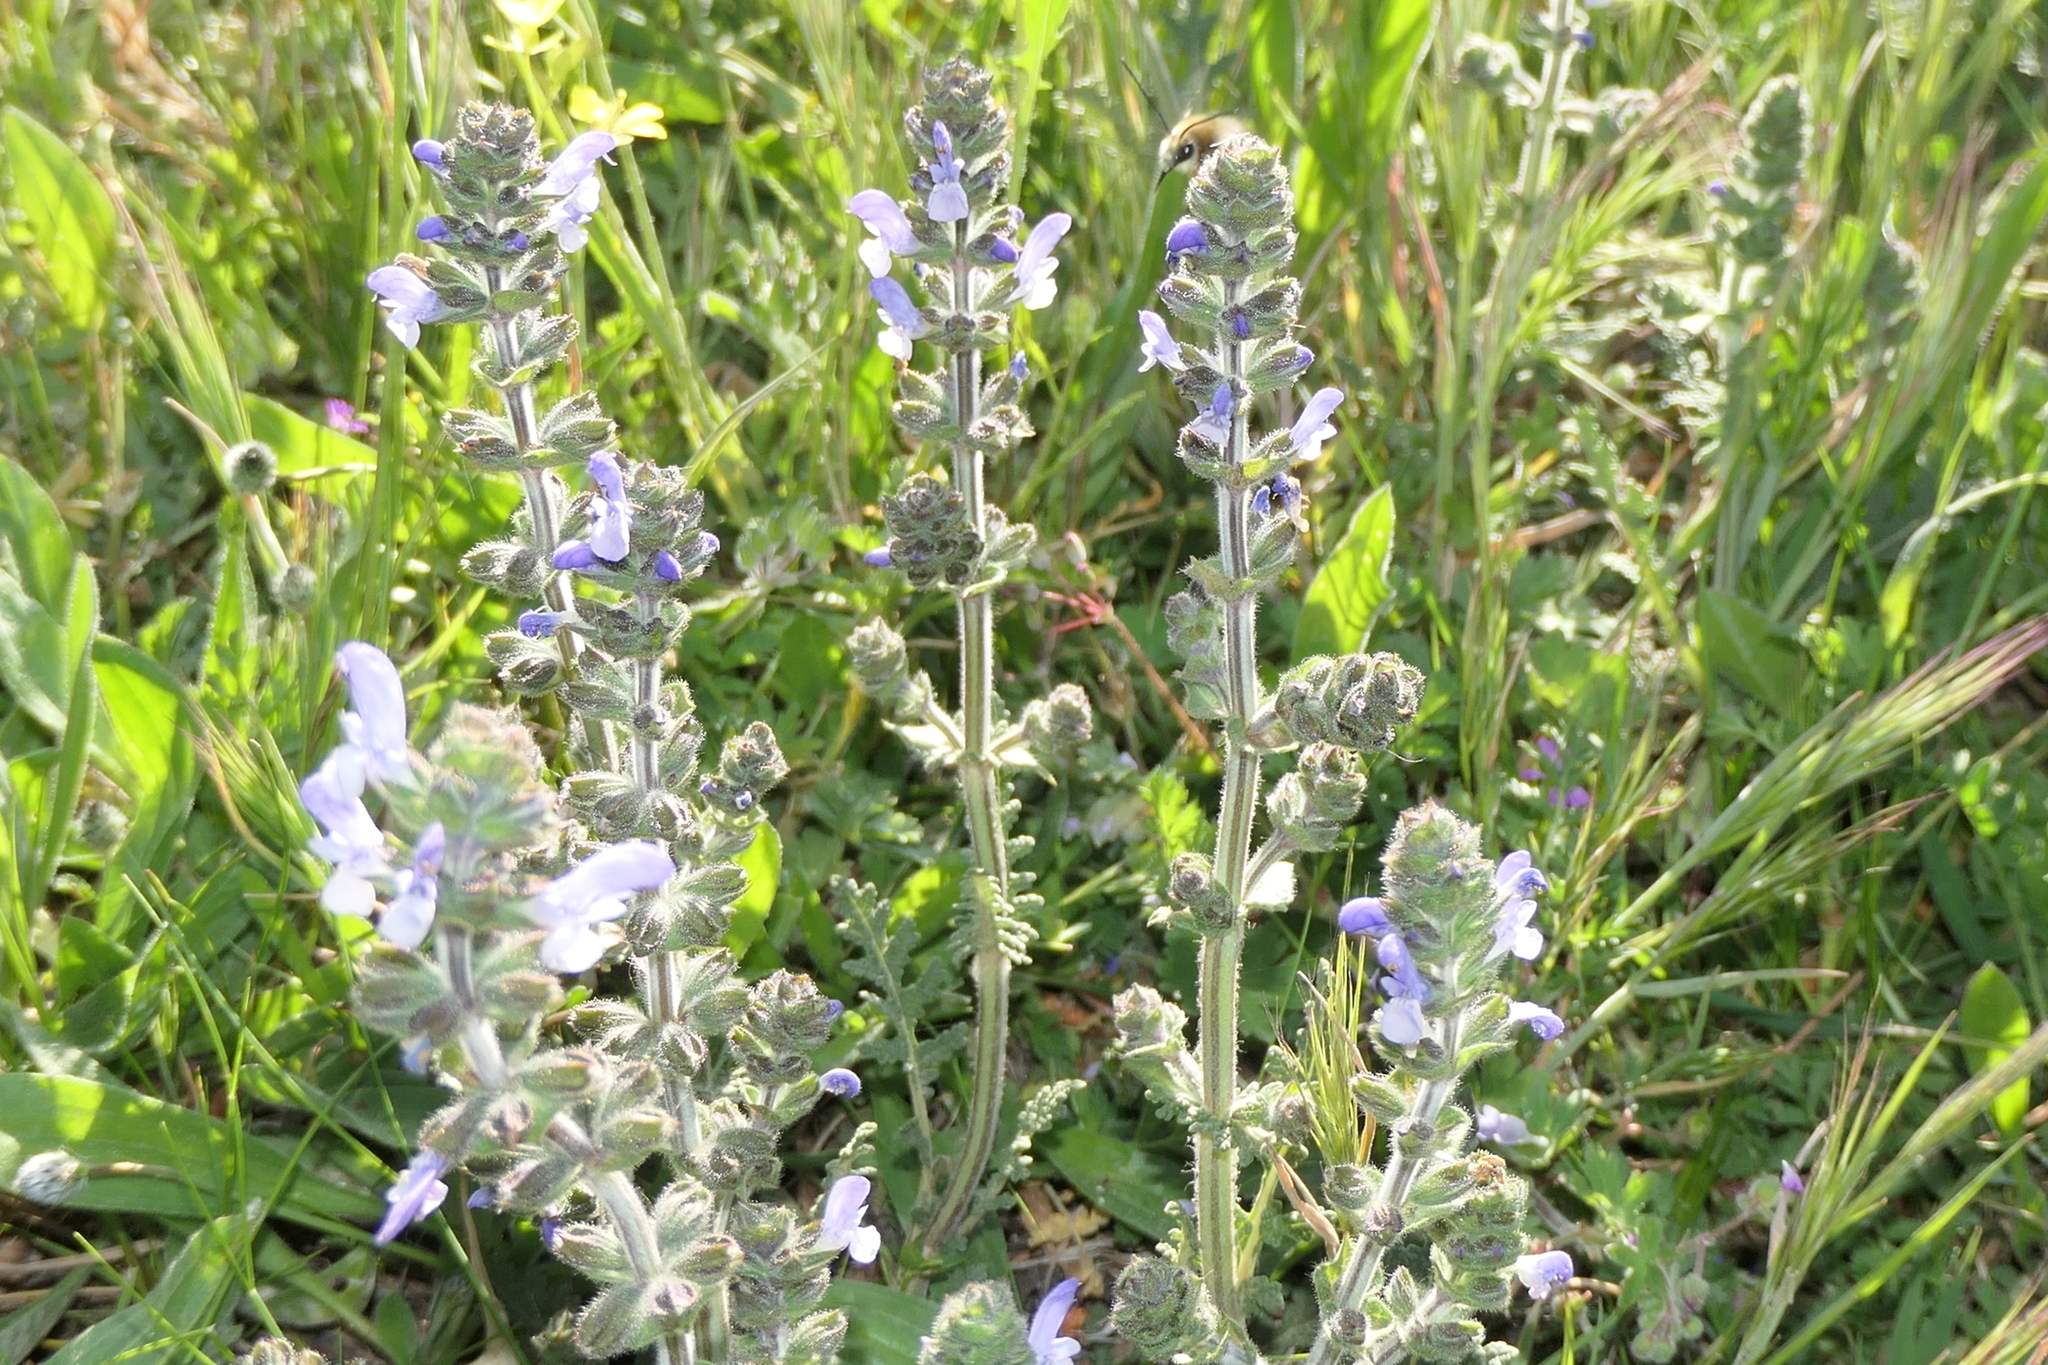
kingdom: Plantae
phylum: Tracheophyta
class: Magnoliopsida
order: Lamiales
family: Lamiaceae
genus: Salvia
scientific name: Salvia verbenaca
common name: Wild clary
